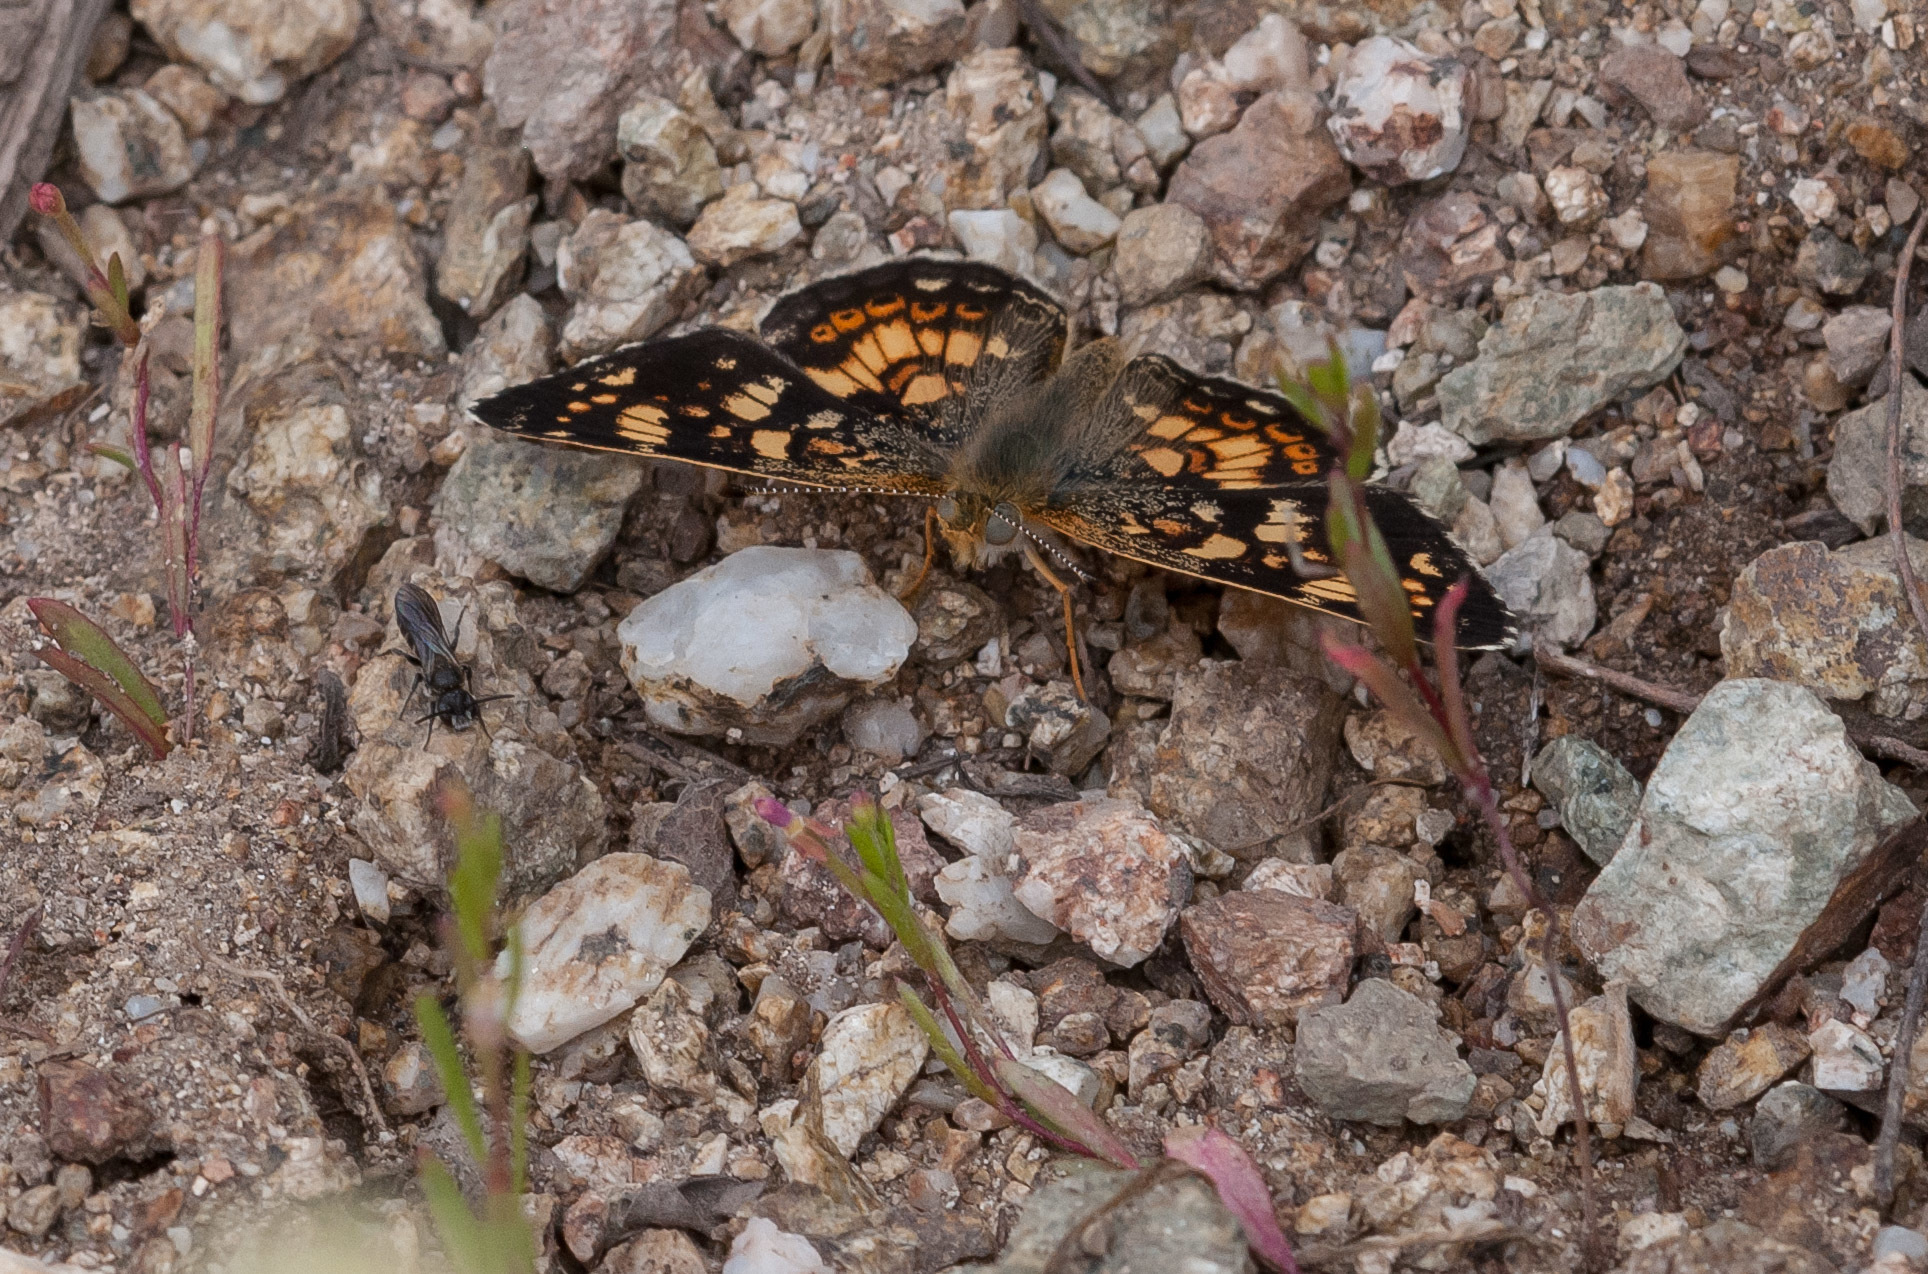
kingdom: Animalia
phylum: Arthropoda
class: Insecta
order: Lepidoptera
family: Nymphalidae
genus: Phyciodes
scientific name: Phyciodes tharos
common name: Pearl crescent
